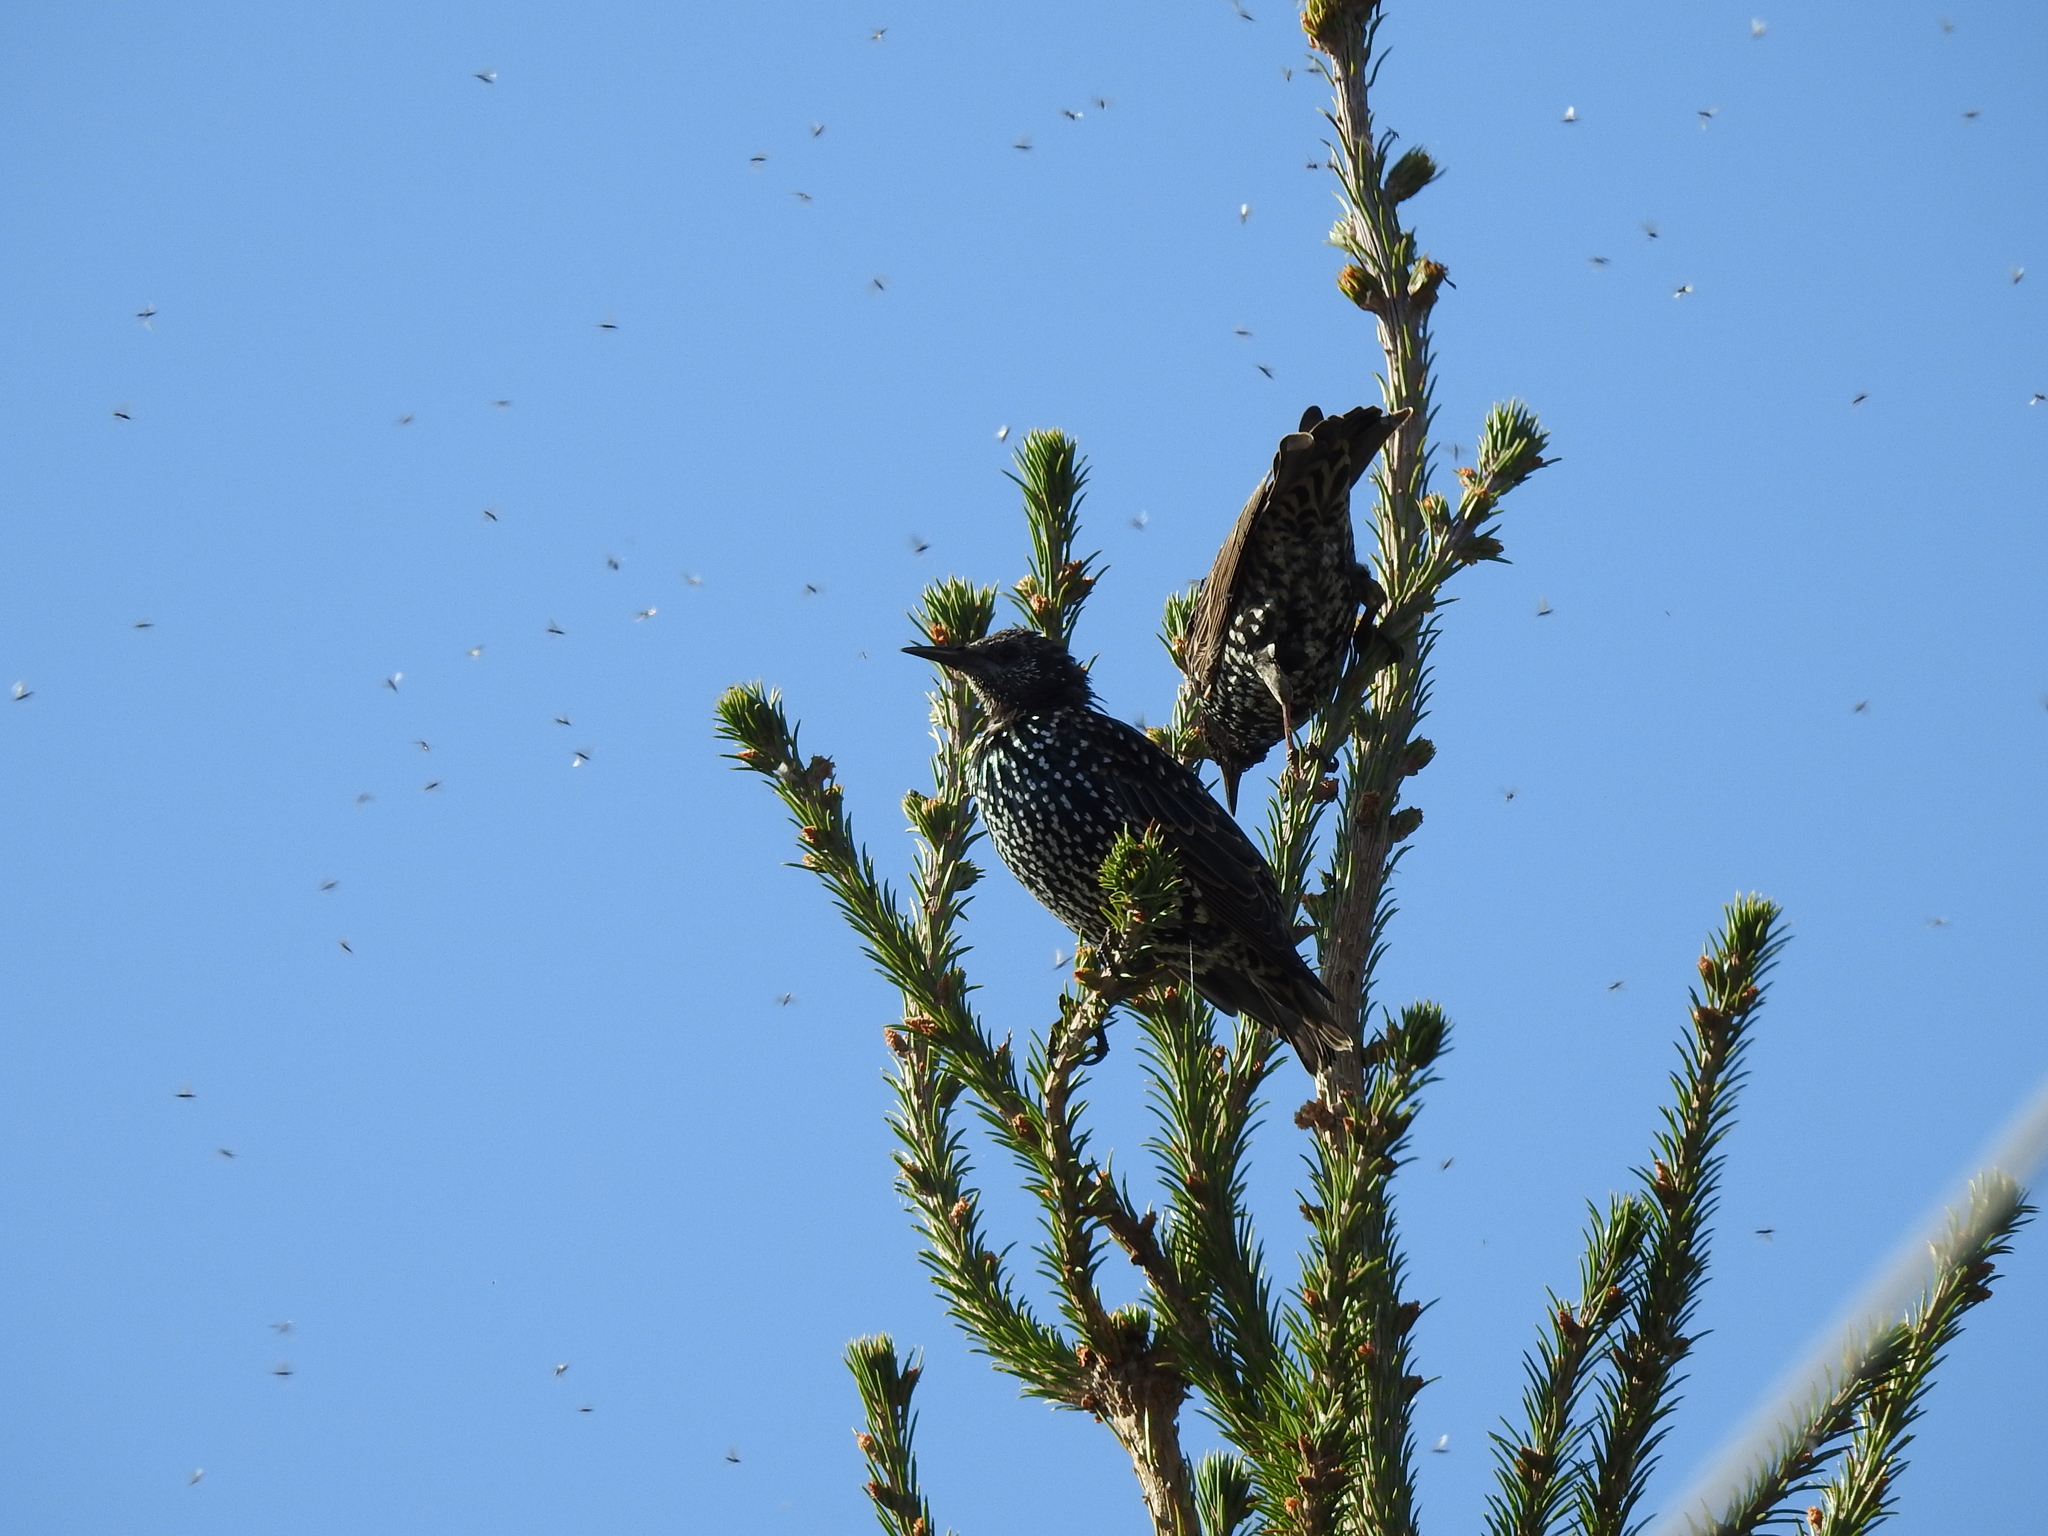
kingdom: Animalia
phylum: Chordata
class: Aves
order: Passeriformes
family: Sturnidae
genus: Sturnus
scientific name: Sturnus vulgaris
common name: Common starling
